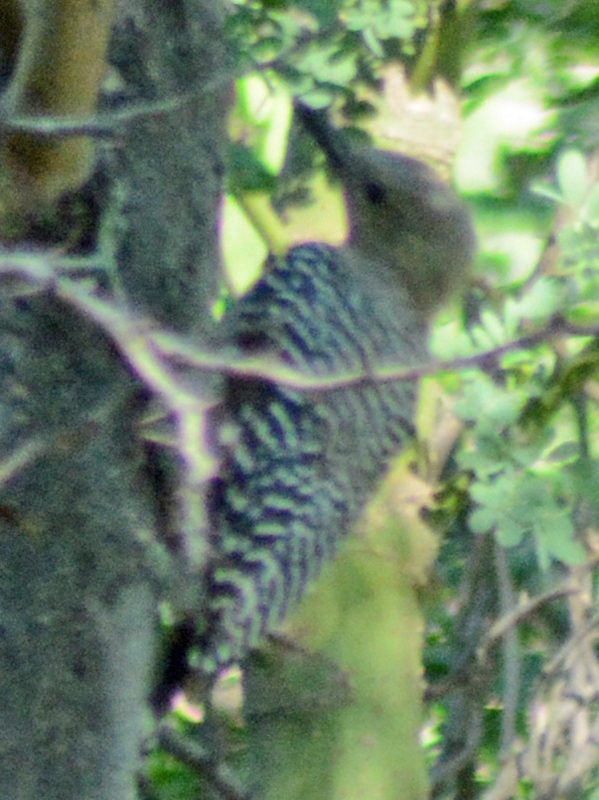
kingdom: Animalia
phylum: Chordata
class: Aves
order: Piciformes
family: Picidae
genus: Melanerpes
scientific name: Melanerpes uropygialis
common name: Gila woodpecker
